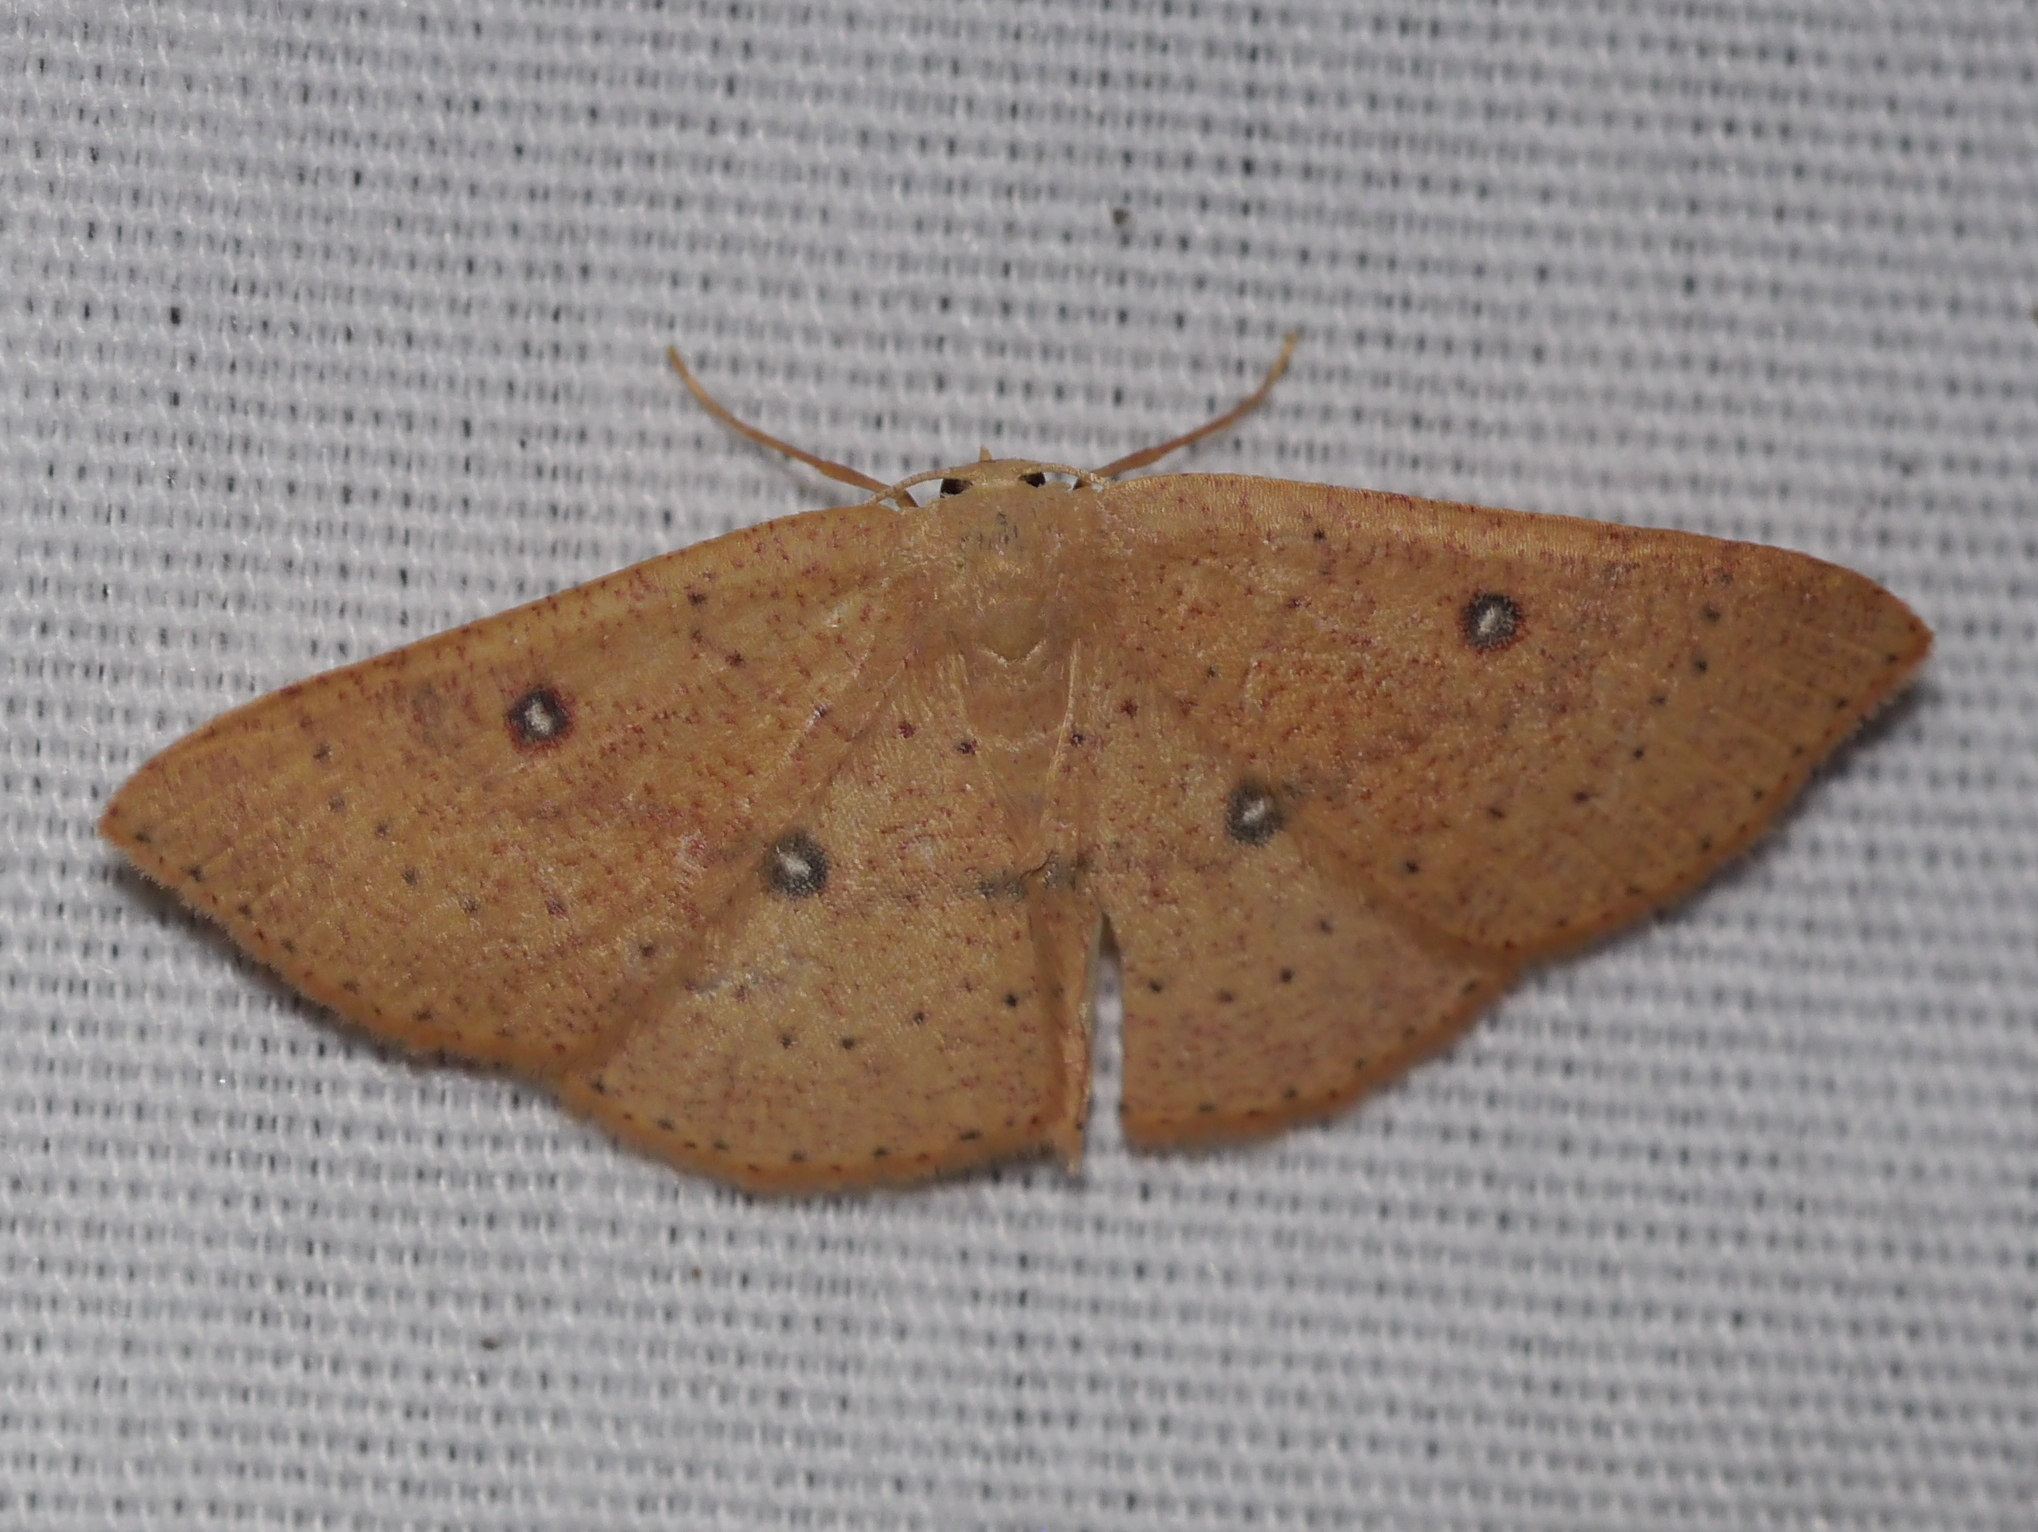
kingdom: Animalia
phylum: Arthropoda
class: Insecta
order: Lepidoptera
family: Geometridae
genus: Cyclophora
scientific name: Cyclophora dataria
